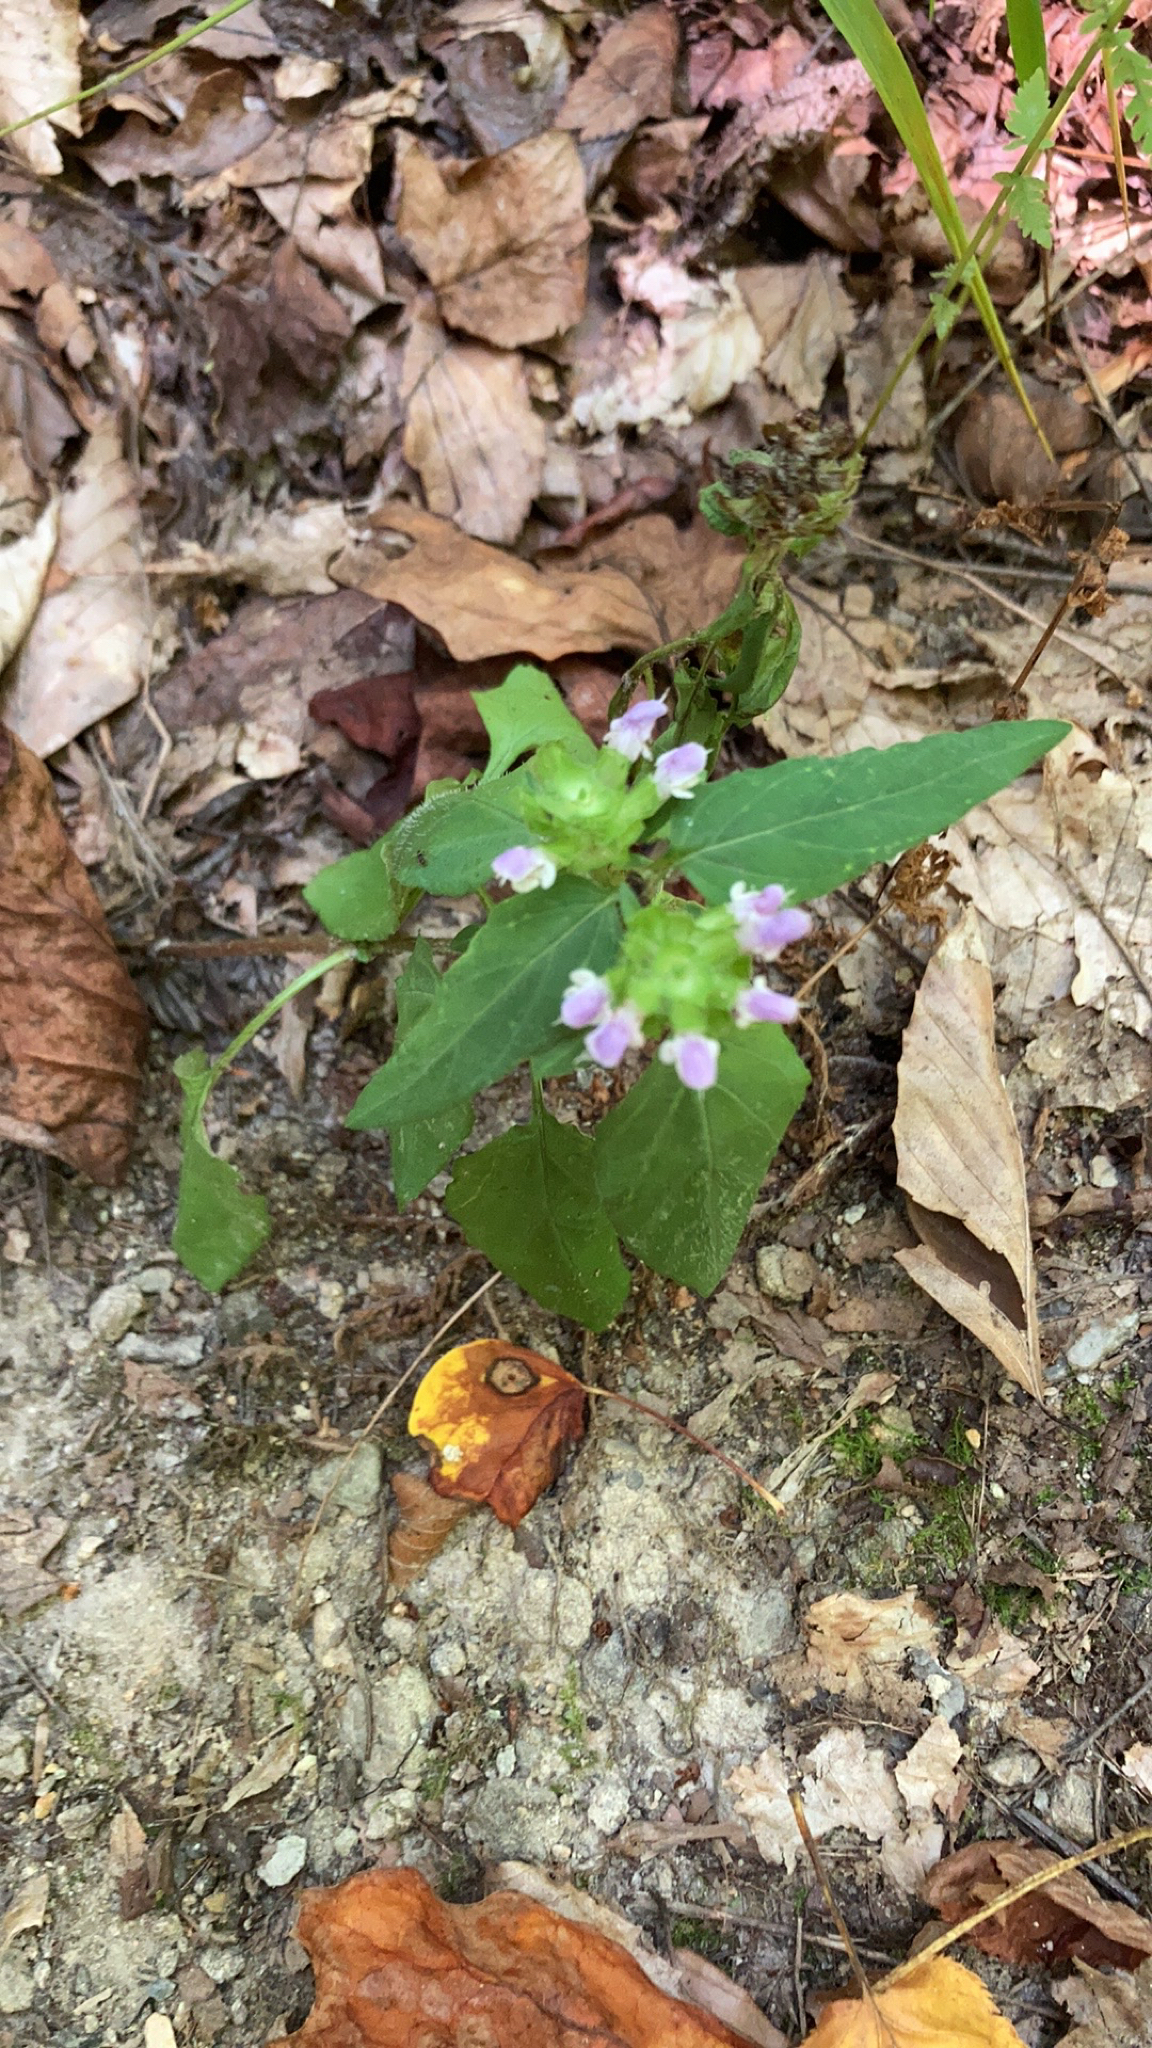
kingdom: Plantae
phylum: Tracheophyta
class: Magnoliopsida
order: Lamiales
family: Lamiaceae
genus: Prunella
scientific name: Prunella vulgaris
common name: Heal-all
